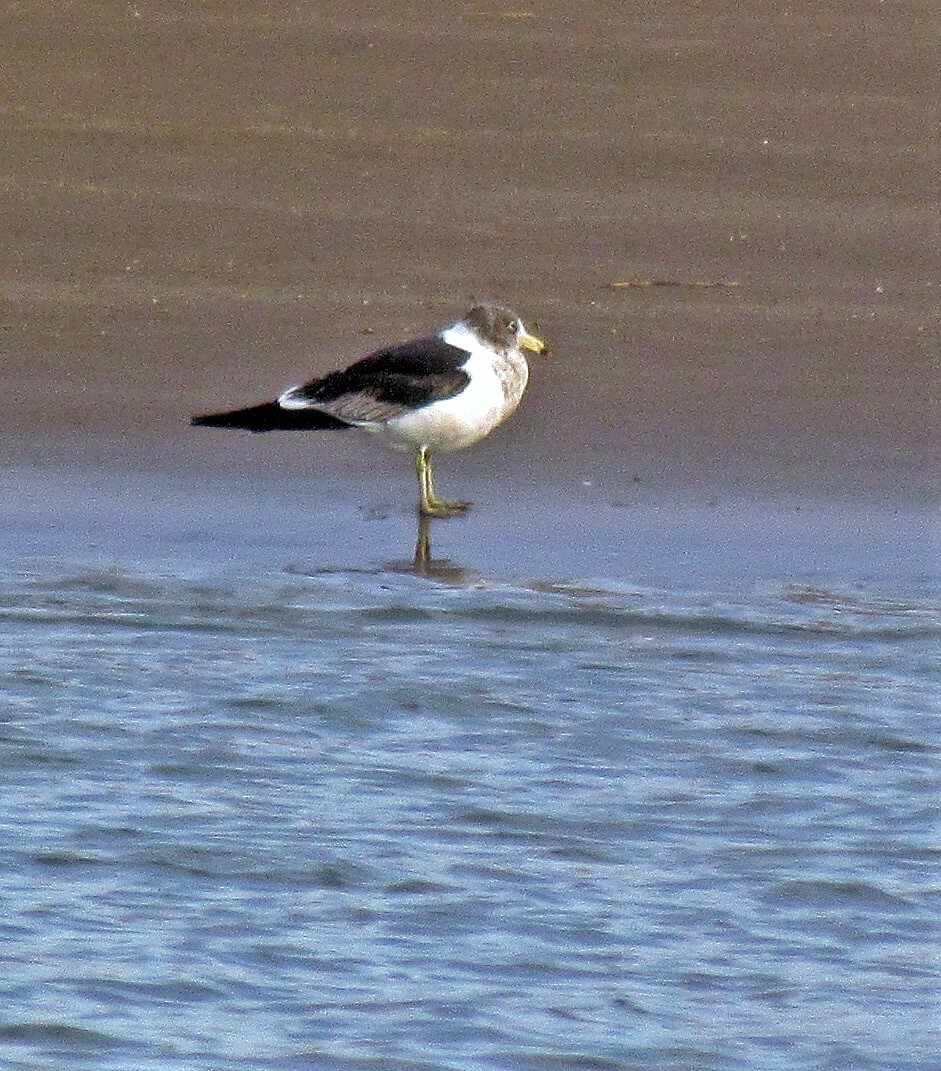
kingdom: Animalia
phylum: Chordata
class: Aves
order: Charadriiformes
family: Laridae
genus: Larus
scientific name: Larus atlanticus
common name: Olrog's gull
